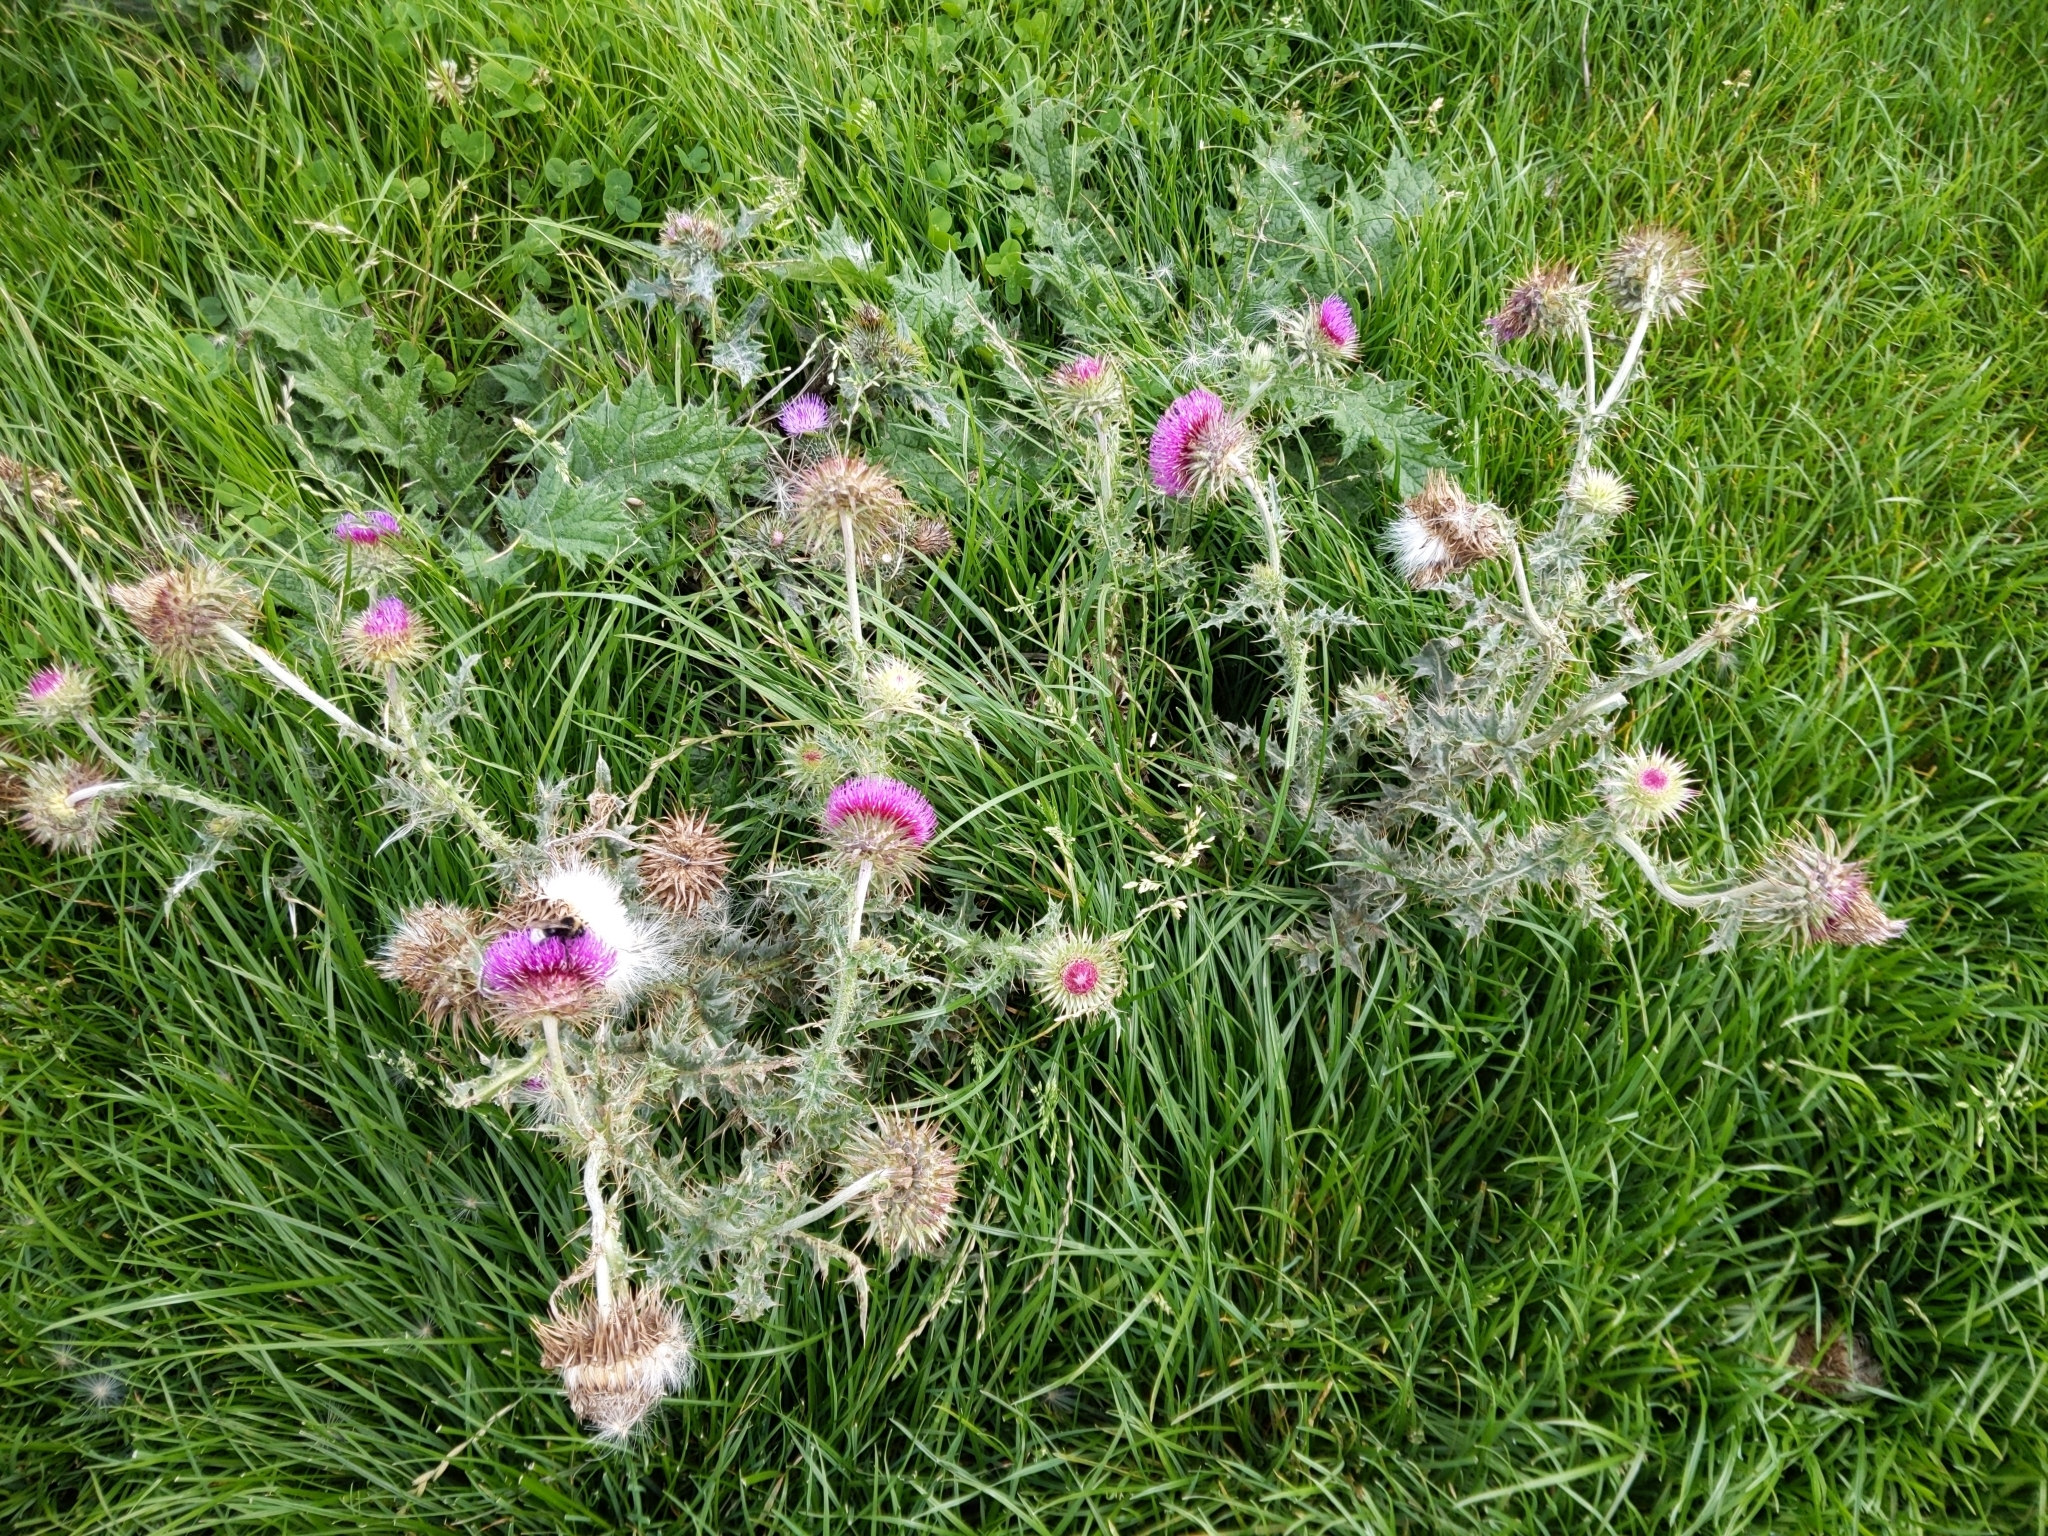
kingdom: Plantae
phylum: Tracheophyta
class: Magnoliopsida
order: Asterales
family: Asteraceae
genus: Carduus
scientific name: Carduus nutans
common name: Musk thistle
